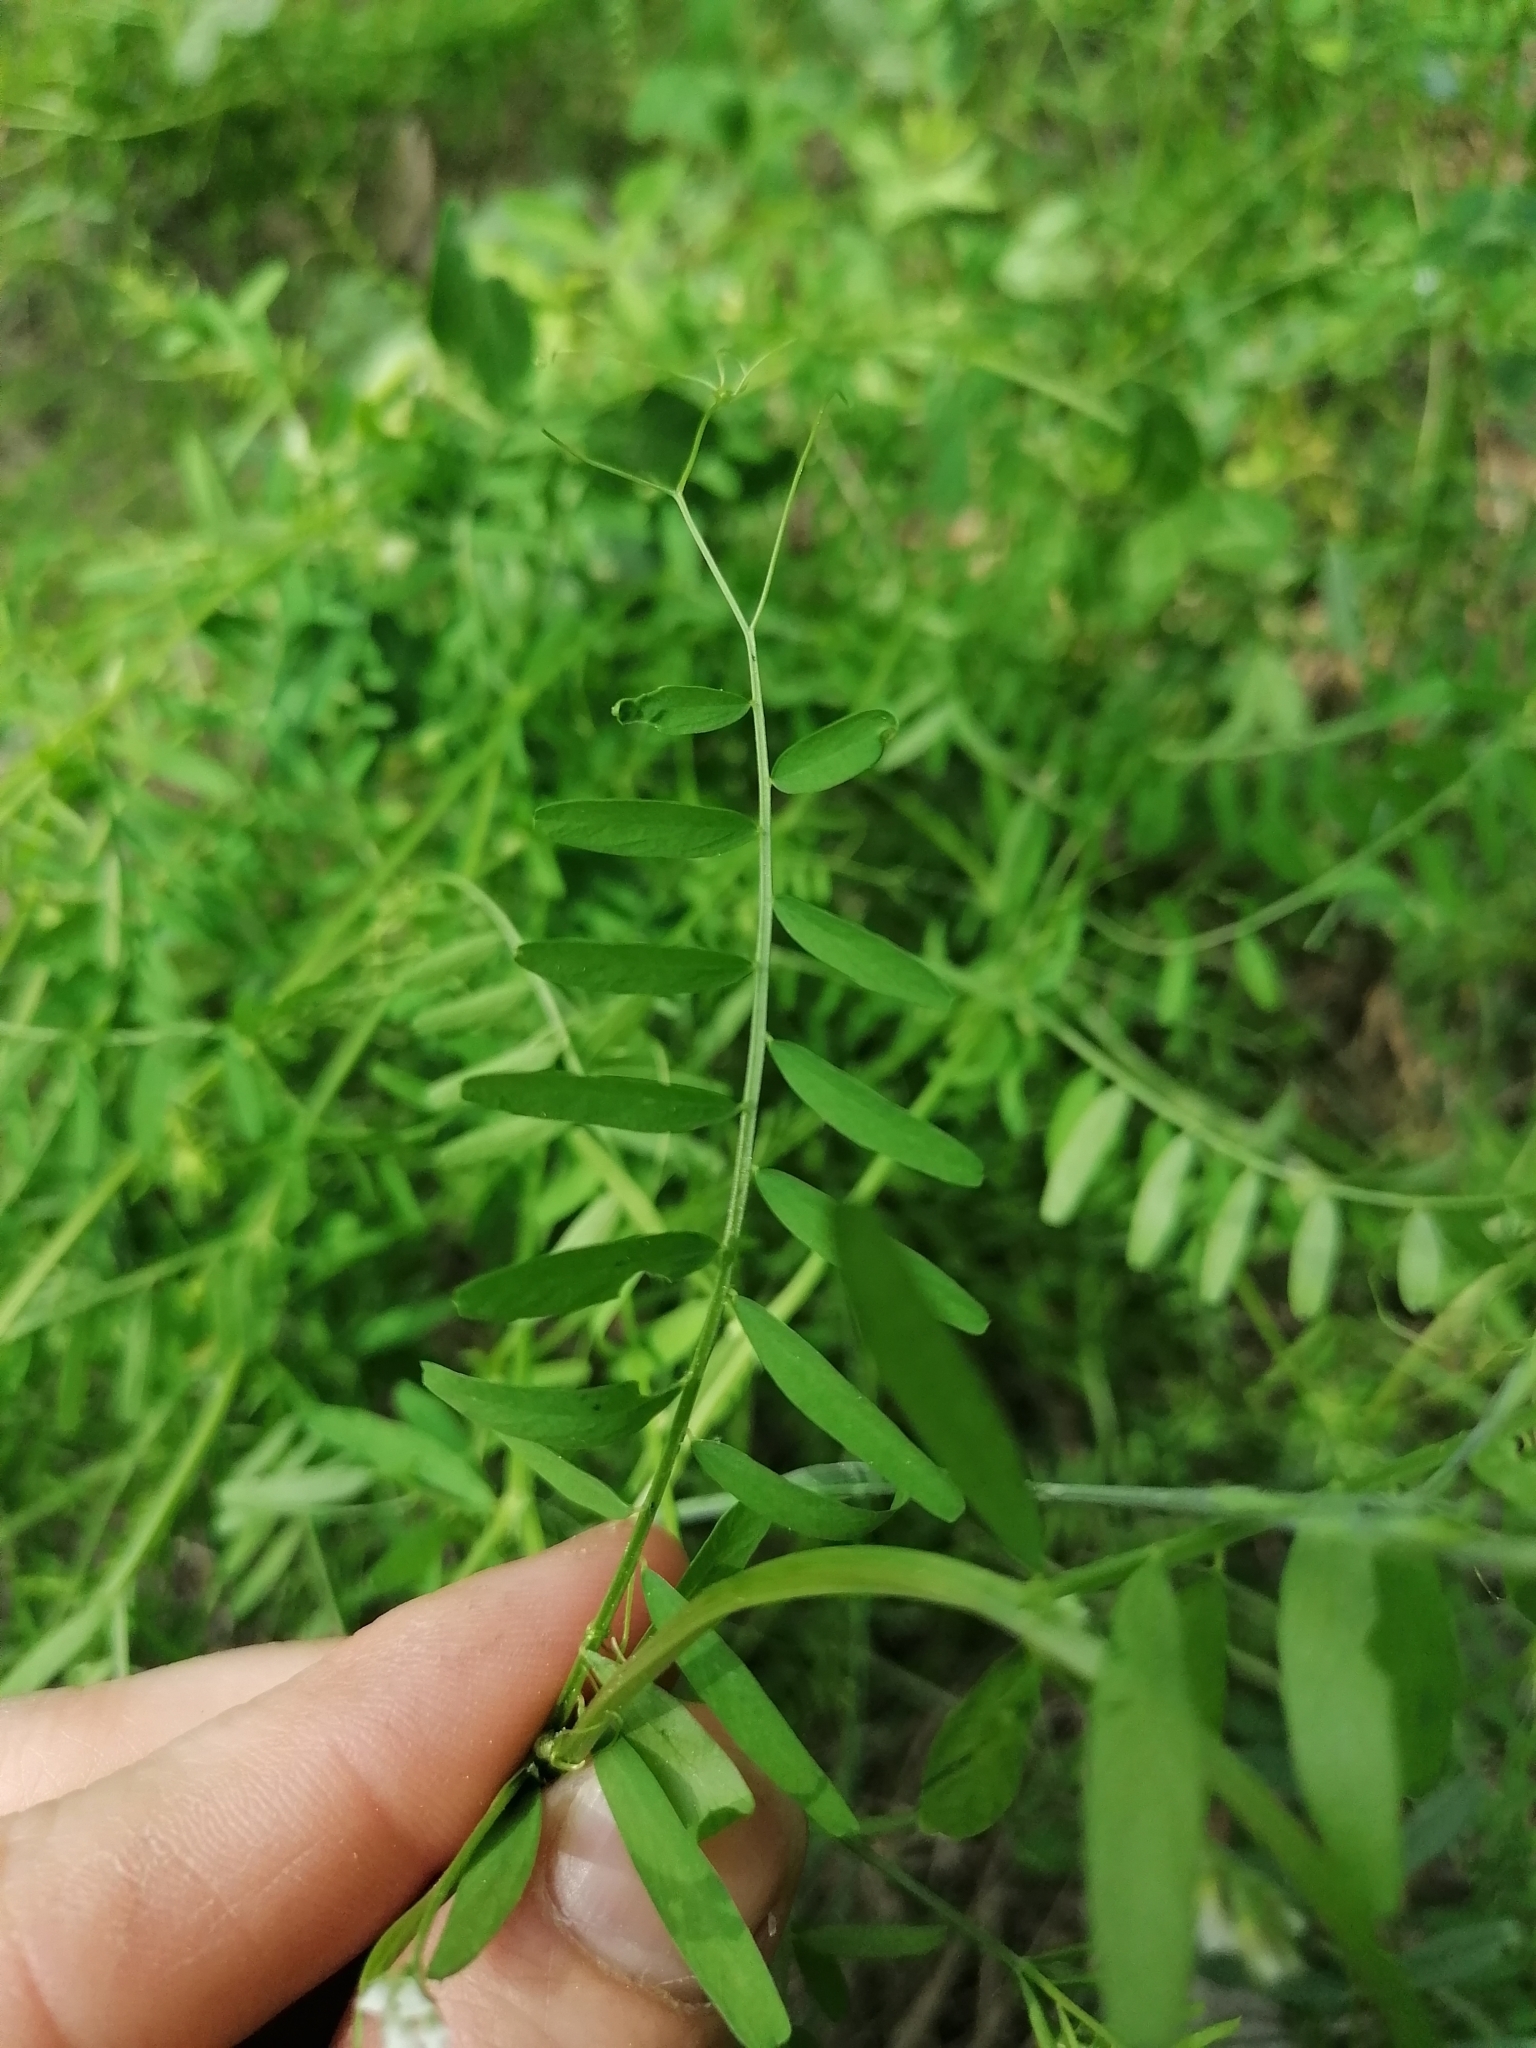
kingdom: Plantae
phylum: Tracheophyta
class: Magnoliopsida
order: Fabales
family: Fabaceae
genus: Vicia
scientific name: Vicia hirsuta
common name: Tiny vetch
